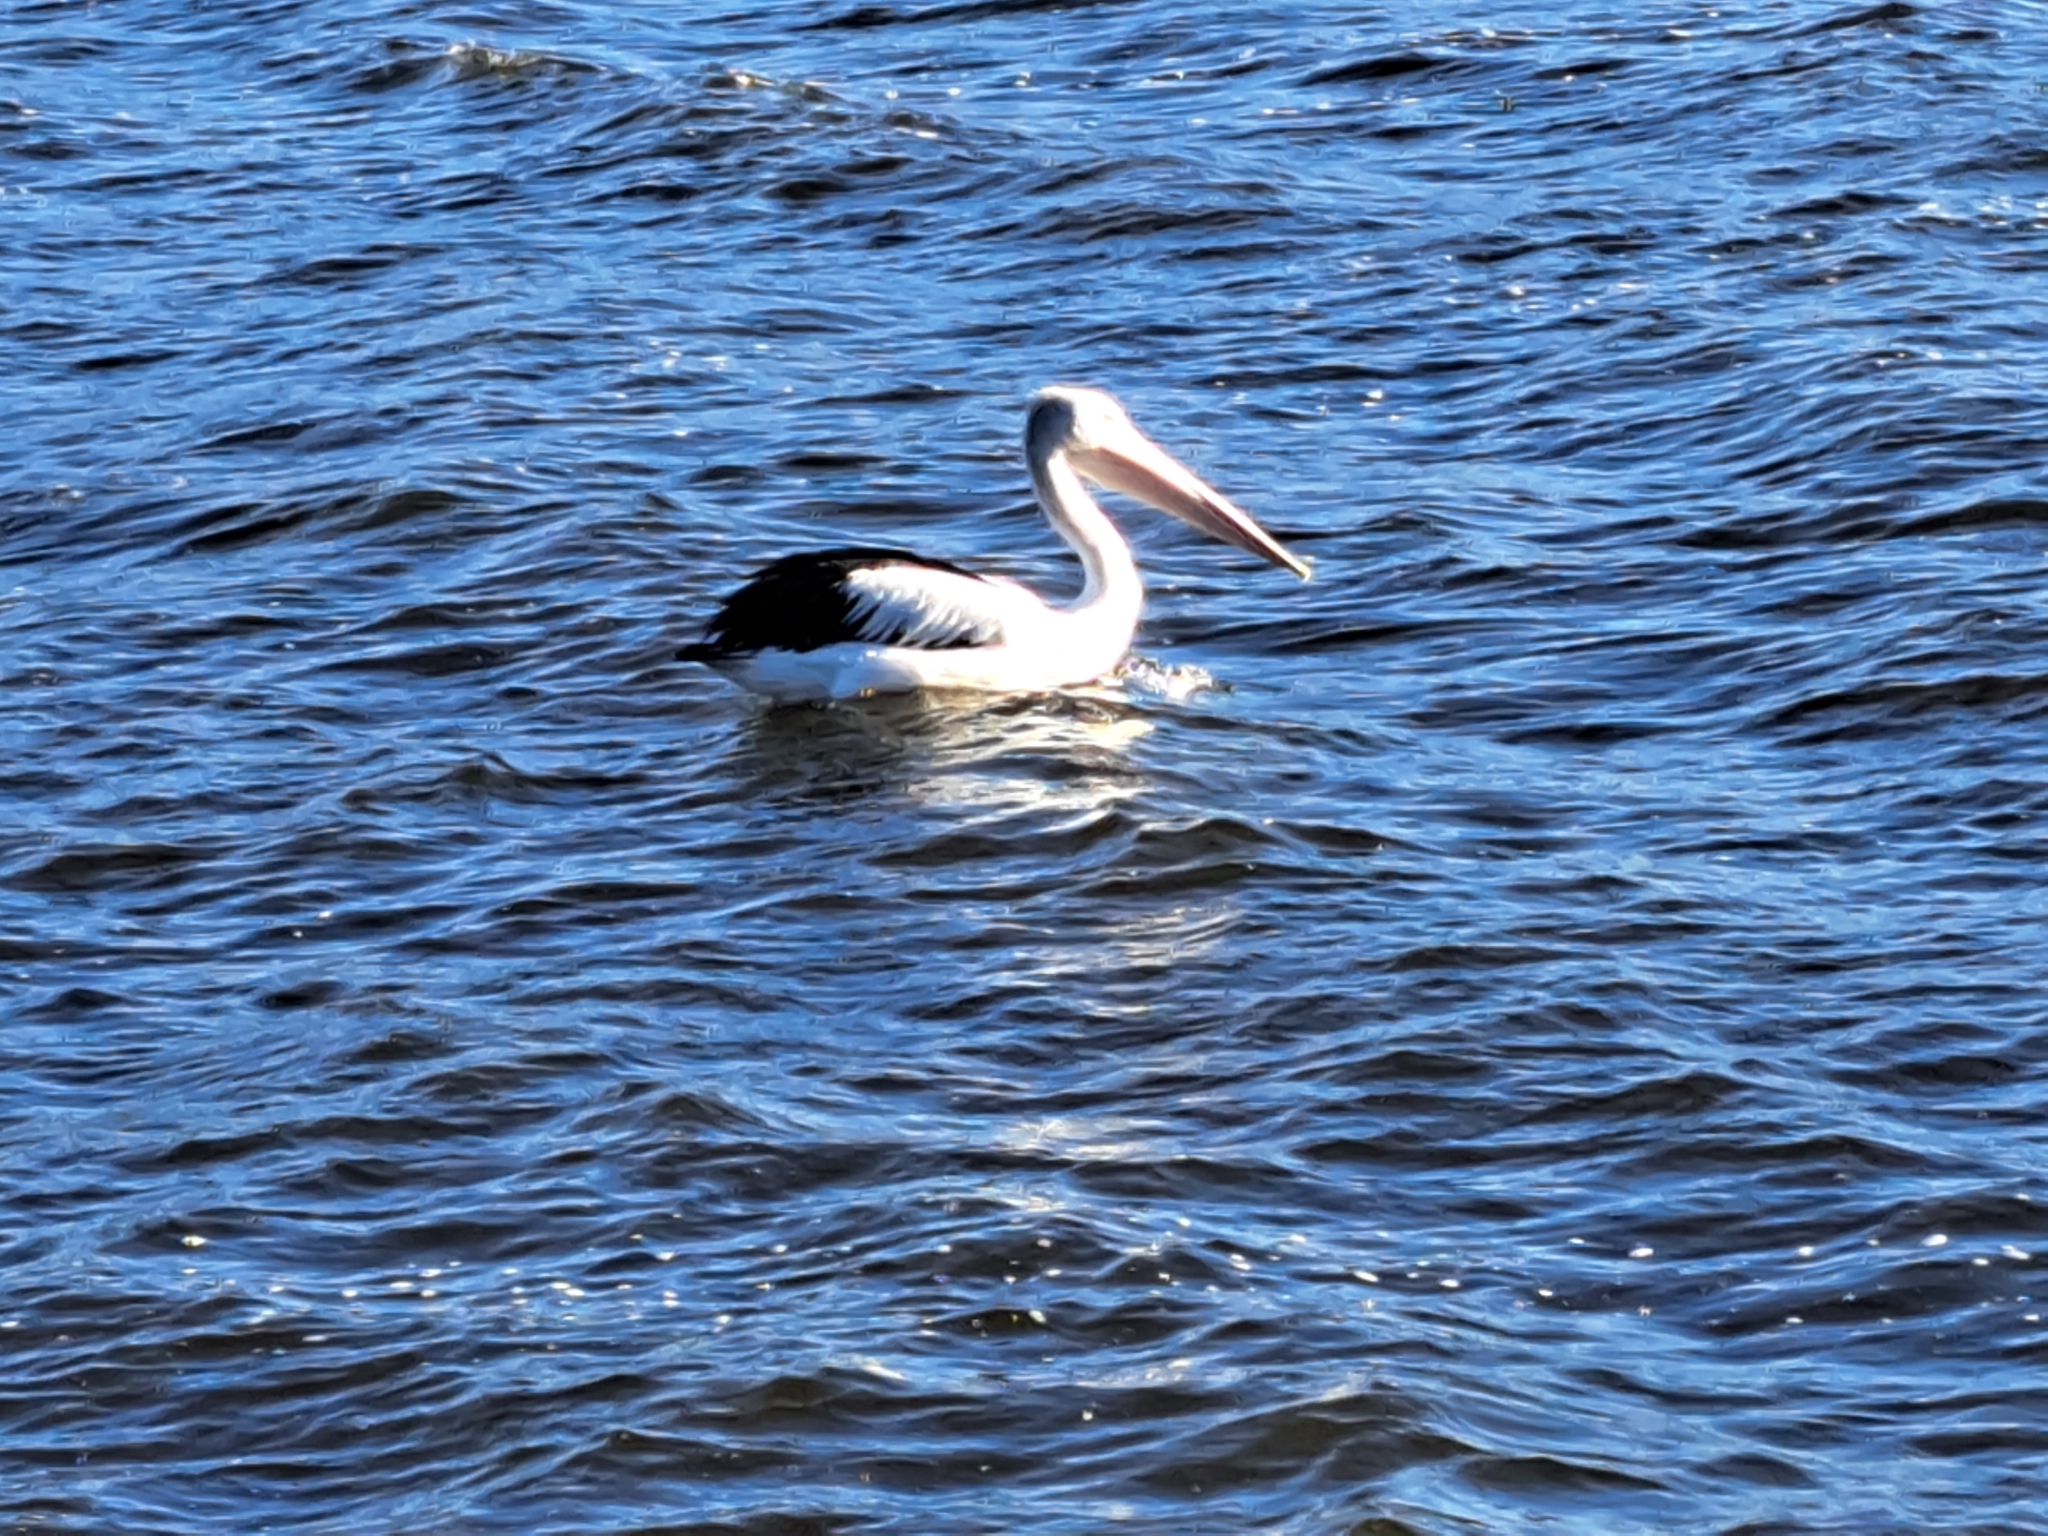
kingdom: Animalia
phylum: Chordata
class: Aves
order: Pelecaniformes
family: Pelecanidae
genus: Pelecanus
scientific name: Pelecanus conspicillatus
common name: Australian pelican
